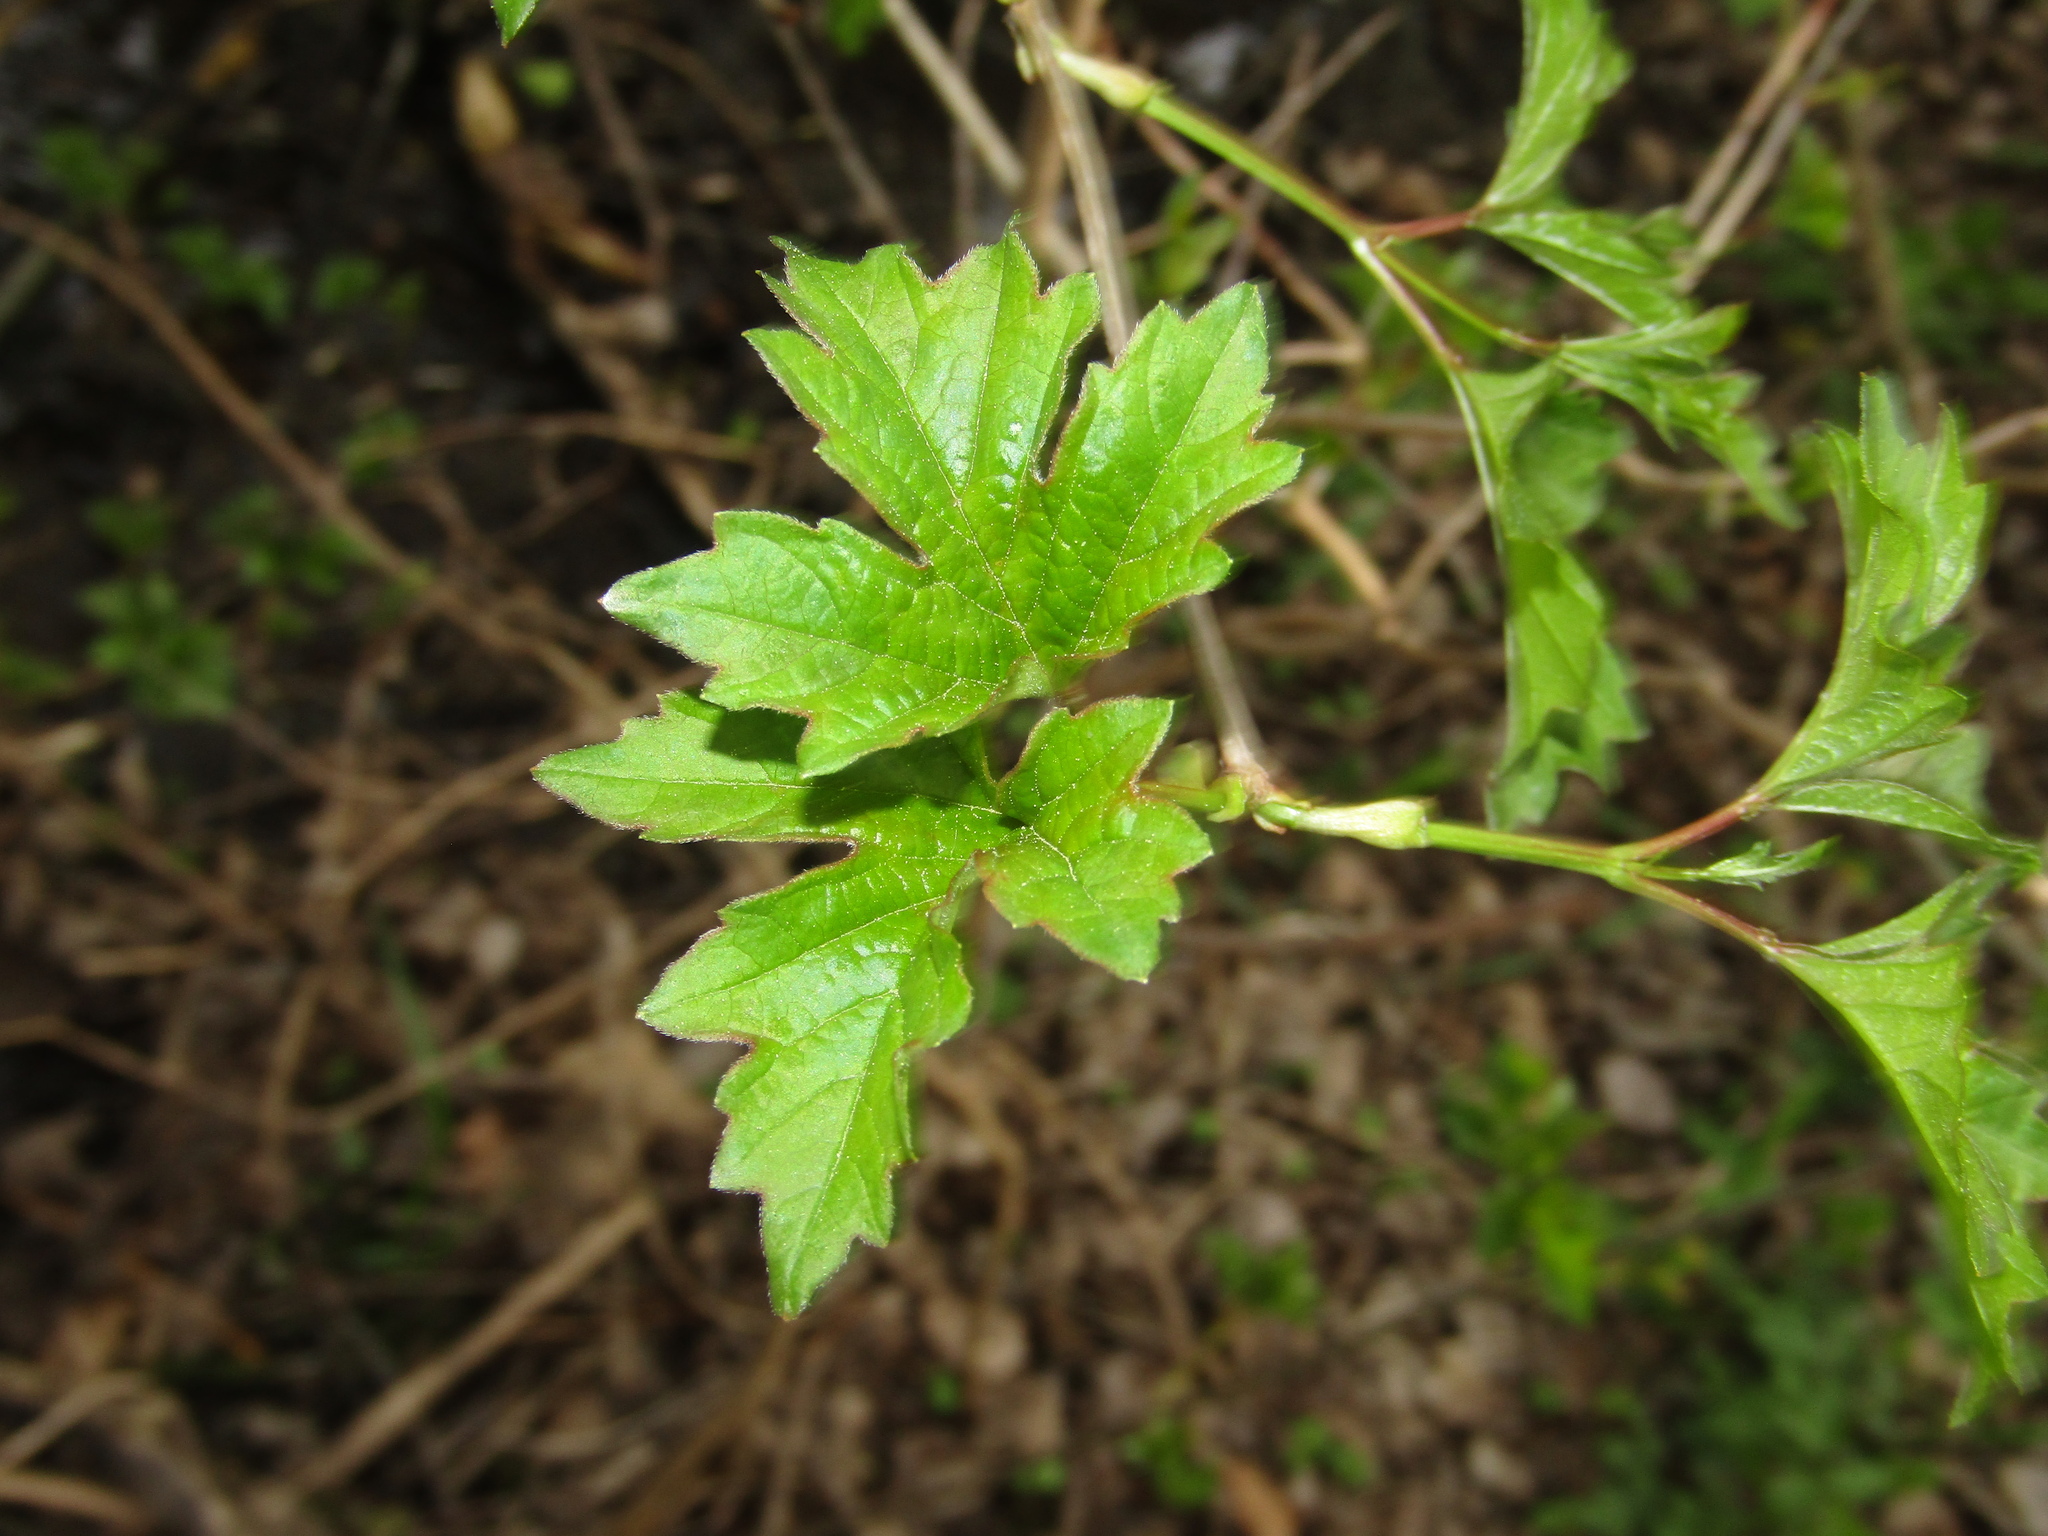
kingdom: Plantae
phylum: Tracheophyta
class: Magnoliopsida
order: Dipsacales
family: Viburnaceae
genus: Viburnum
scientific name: Viburnum opulus
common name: Guelder-rose
